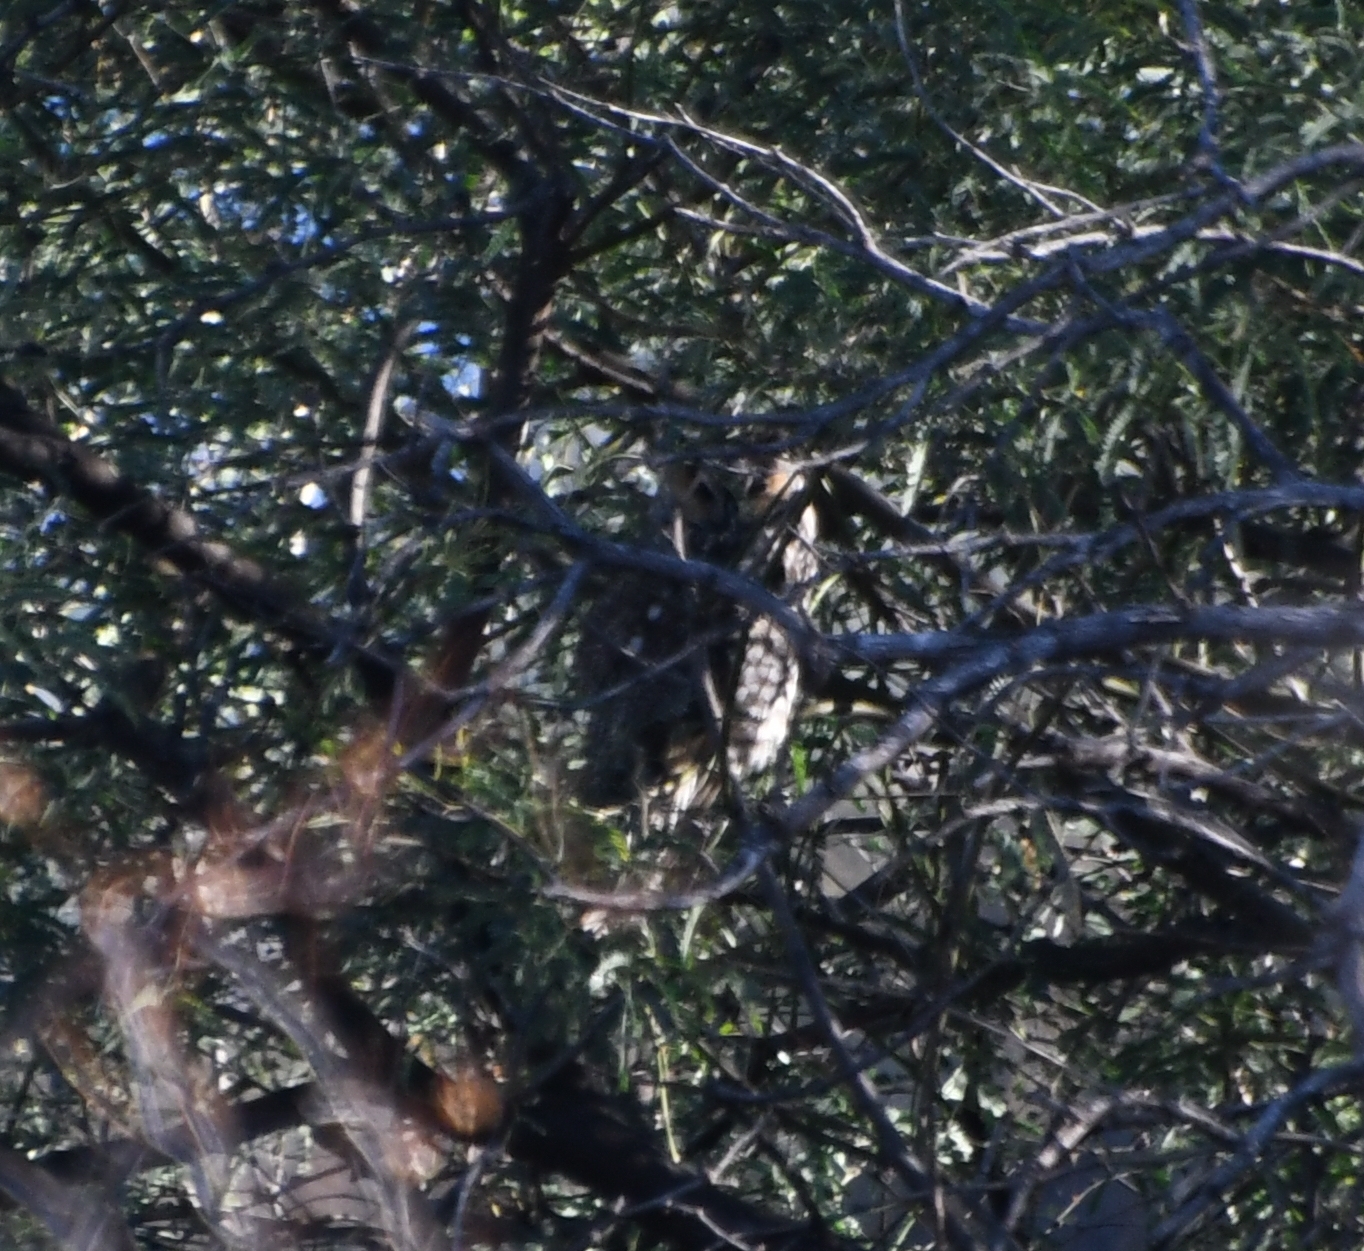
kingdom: Animalia
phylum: Chordata
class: Aves
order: Strigiformes
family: Strigidae
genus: Asio
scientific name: Asio otus
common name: Long-eared owl
